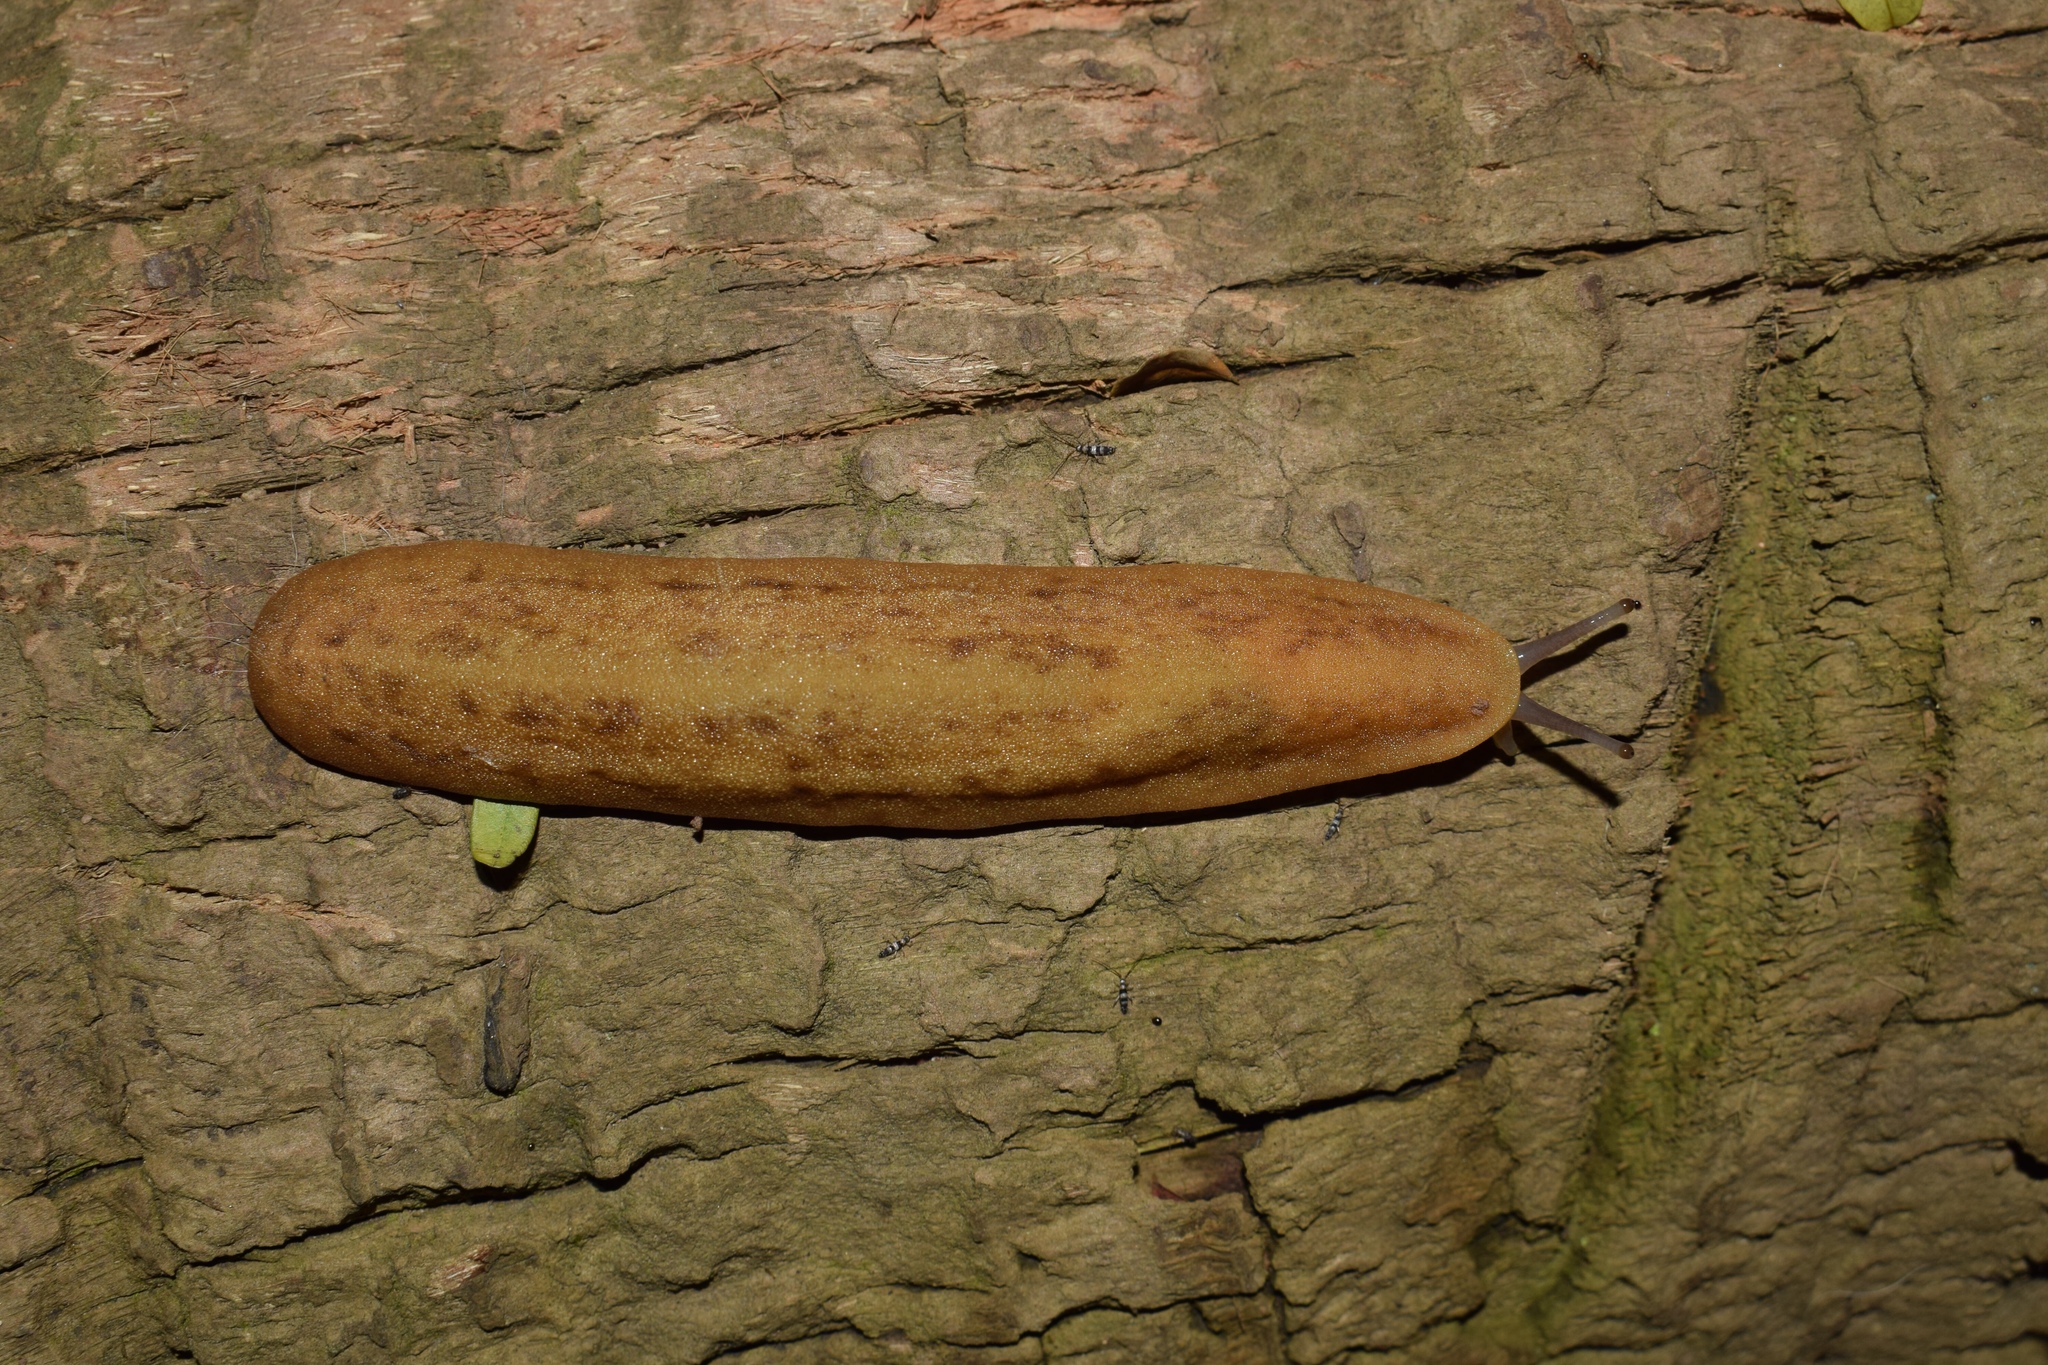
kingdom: Animalia
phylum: Mollusca
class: Gastropoda
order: Systellommatophora
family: Veronicellidae
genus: Laevicaulis
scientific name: Laevicaulis natalensis
